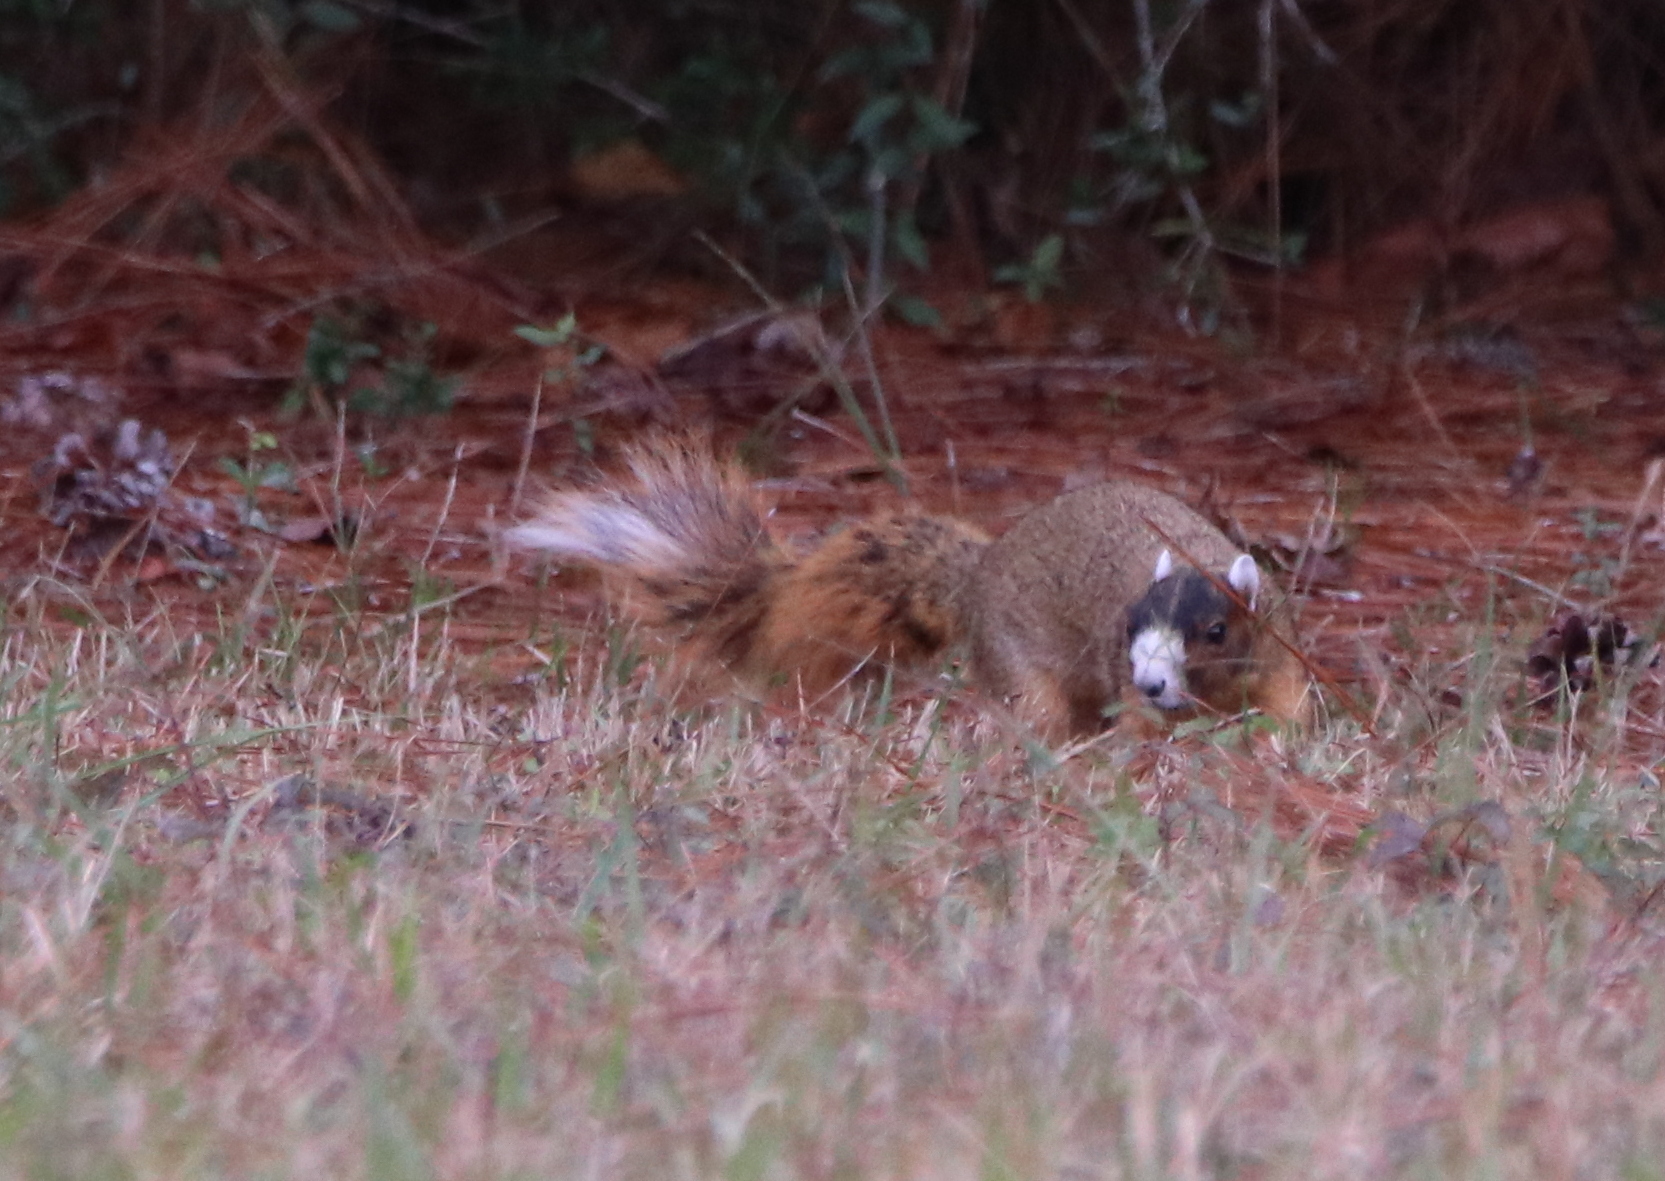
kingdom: Animalia
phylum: Chordata
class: Mammalia
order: Rodentia
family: Sciuridae
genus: Sciurus
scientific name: Sciurus niger
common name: Fox squirrel
